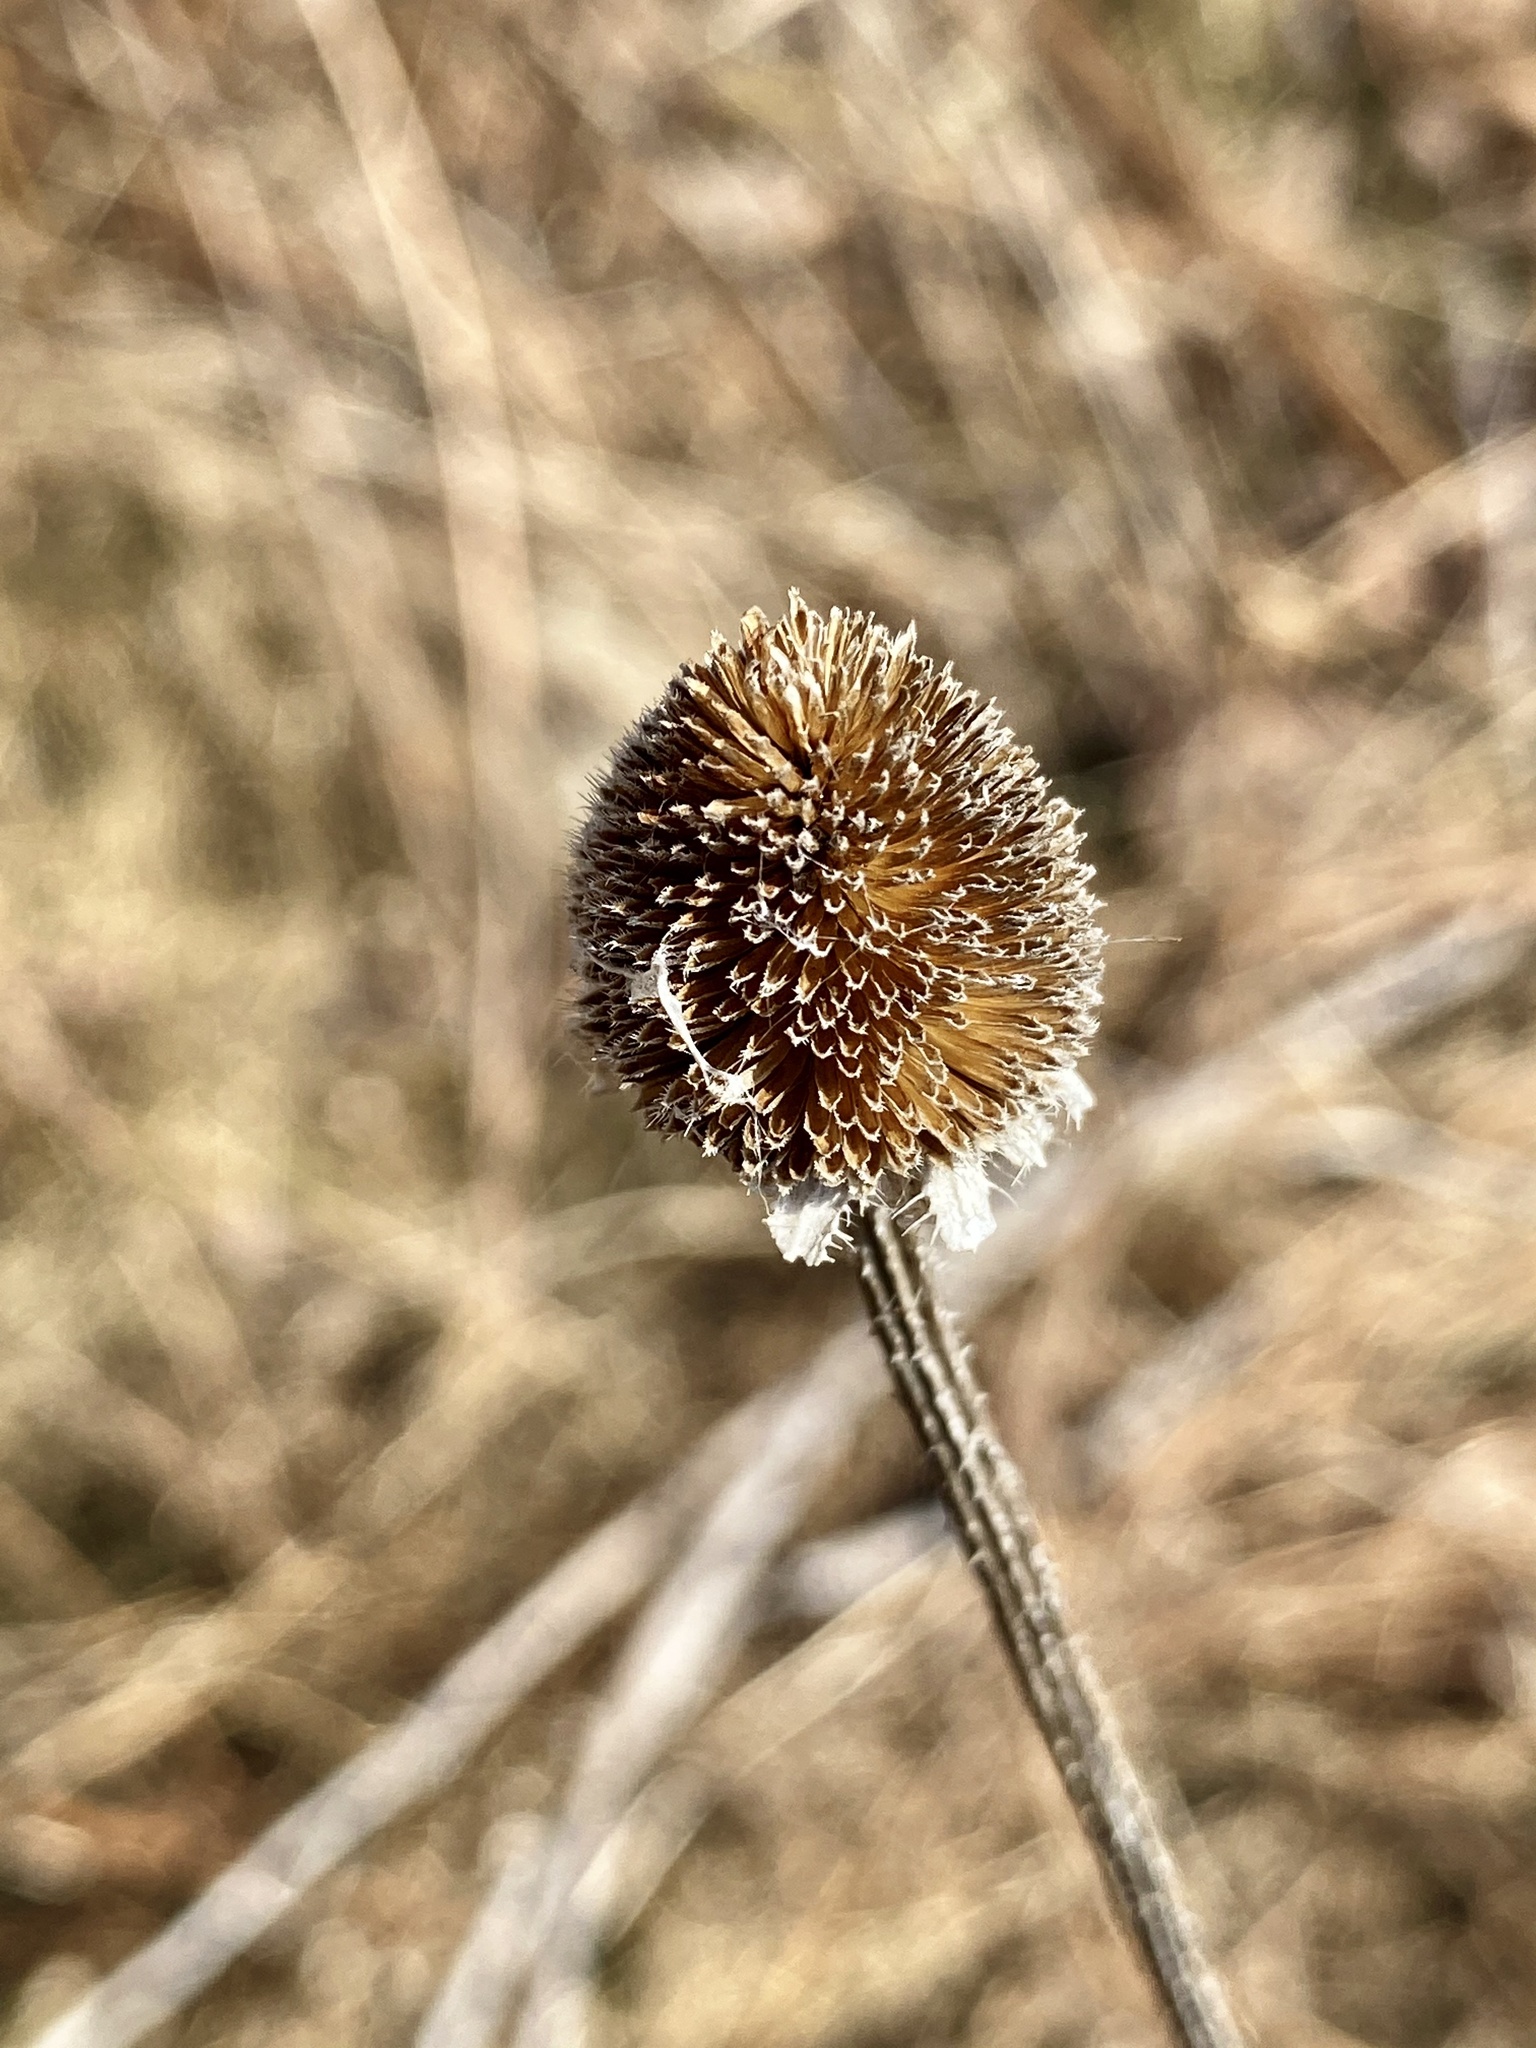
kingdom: Plantae
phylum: Tracheophyta
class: Magnoliopsida
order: Asterales
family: Asteraceae
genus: Echinacea
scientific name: Echinacea purpurea
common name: Broad-leaved purple coneflower
